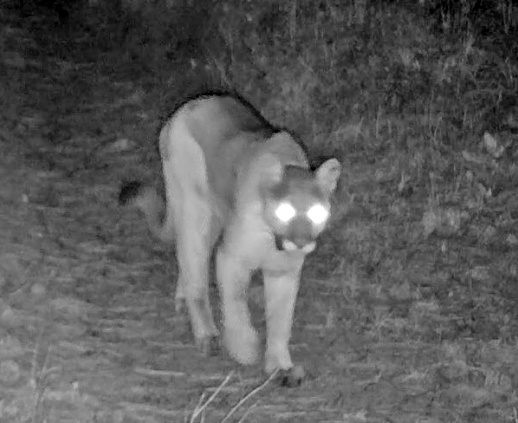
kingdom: Animalia
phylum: Chordata
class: Mammalia
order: Carnivora
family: Felidae
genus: Puma
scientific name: Puma concolor
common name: Puma
